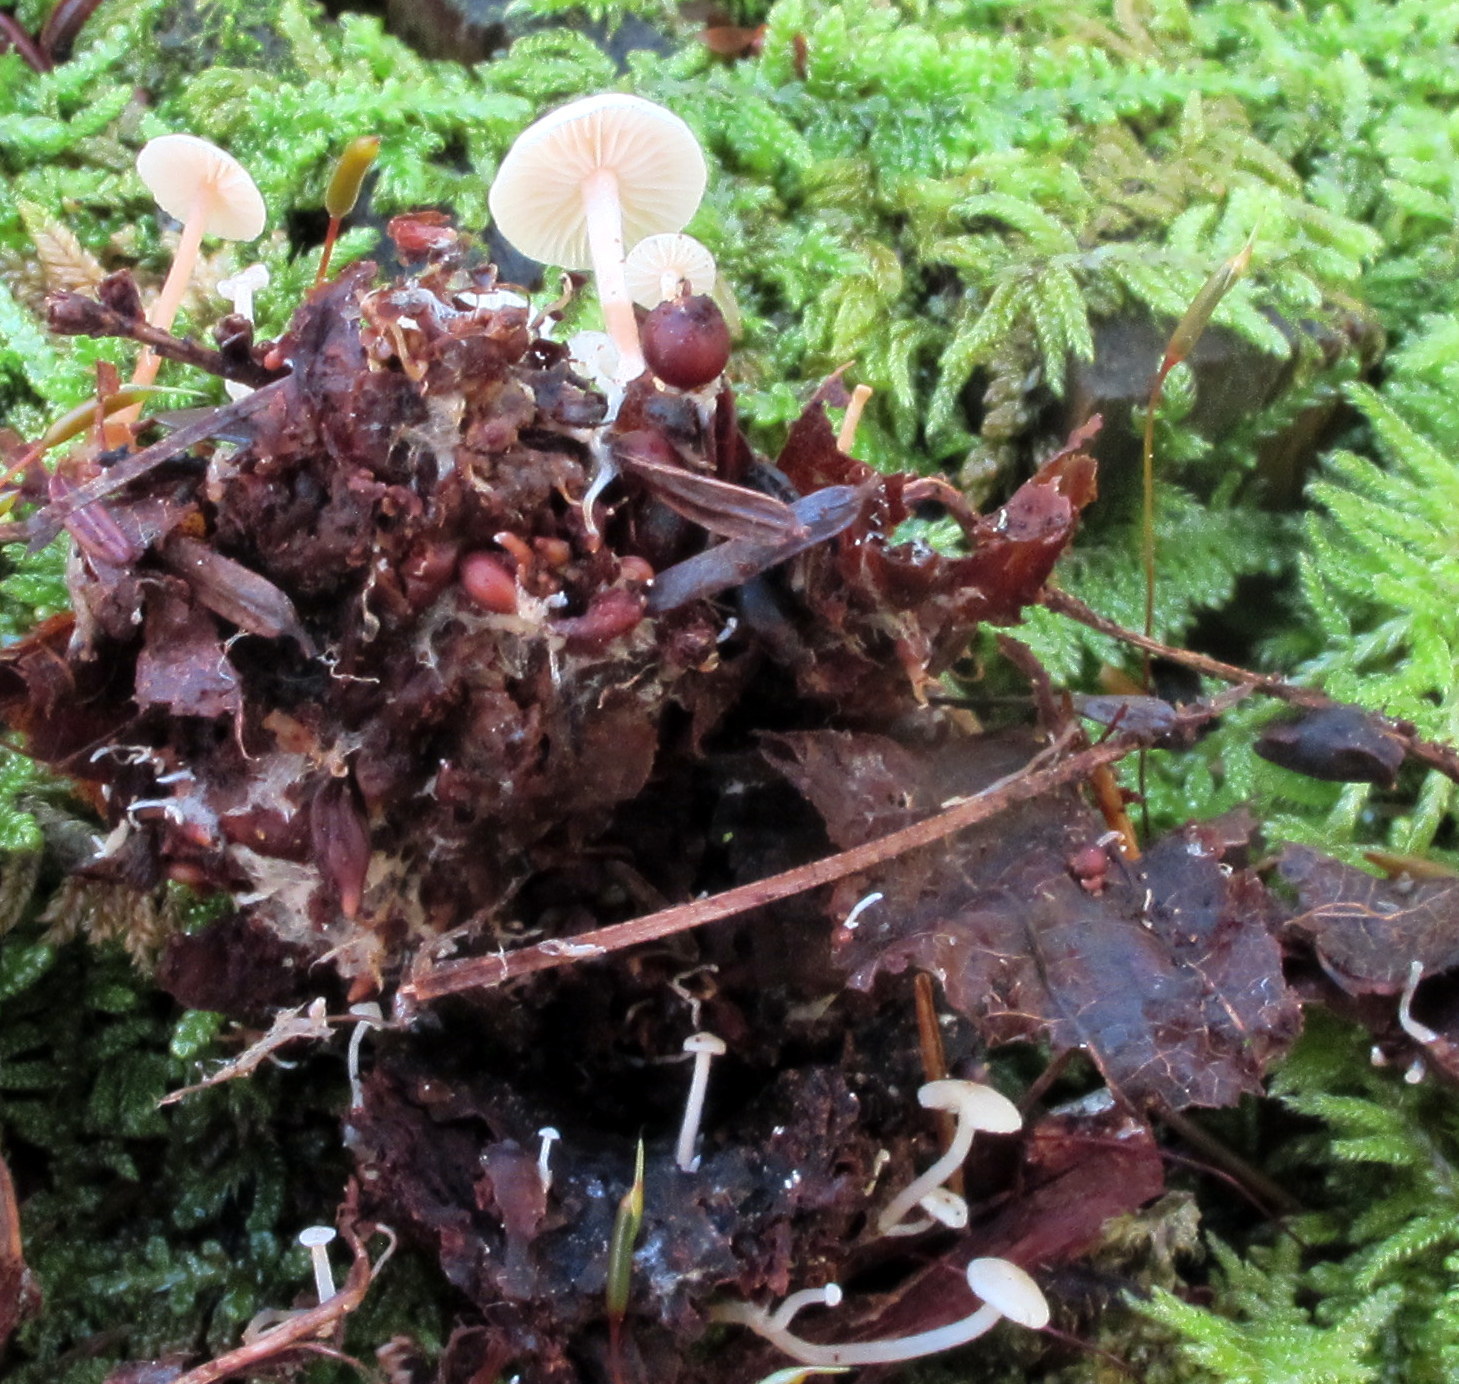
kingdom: Fungi
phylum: Basidiomycota
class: Agaricomycetes
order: Agaricales
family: Tricholomataceae
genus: Collybia
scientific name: Collybia tuberosa
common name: Lentil shanklet
